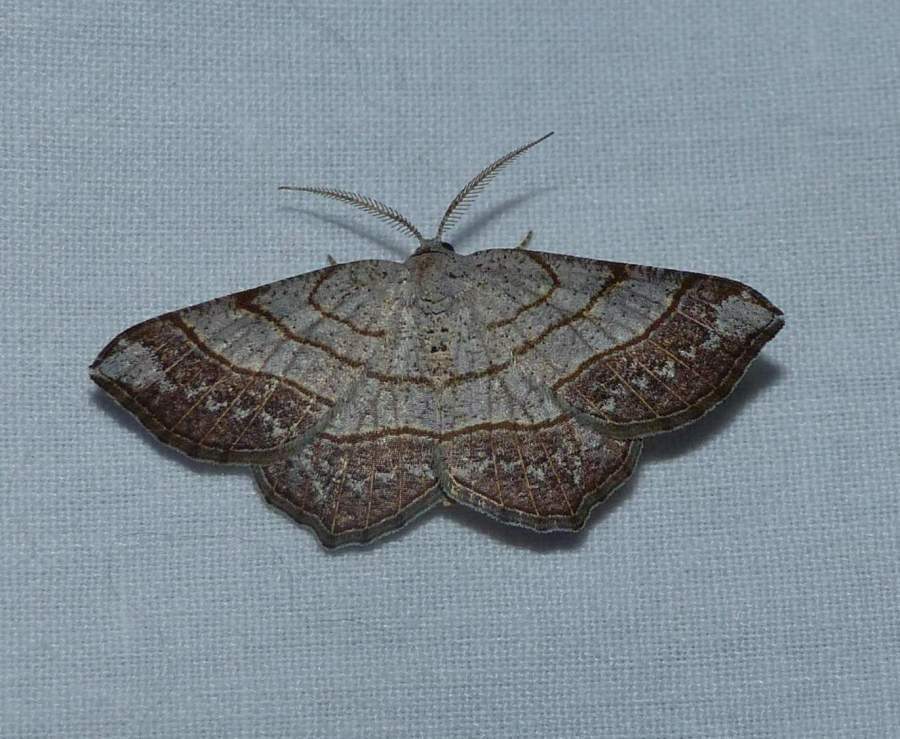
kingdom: Animalia
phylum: Arthropoda
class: Insecta
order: Lepidoptera
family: Geometridae
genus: Eumacaria
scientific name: Eumacaria madopata
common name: Brown-bordered geometer
